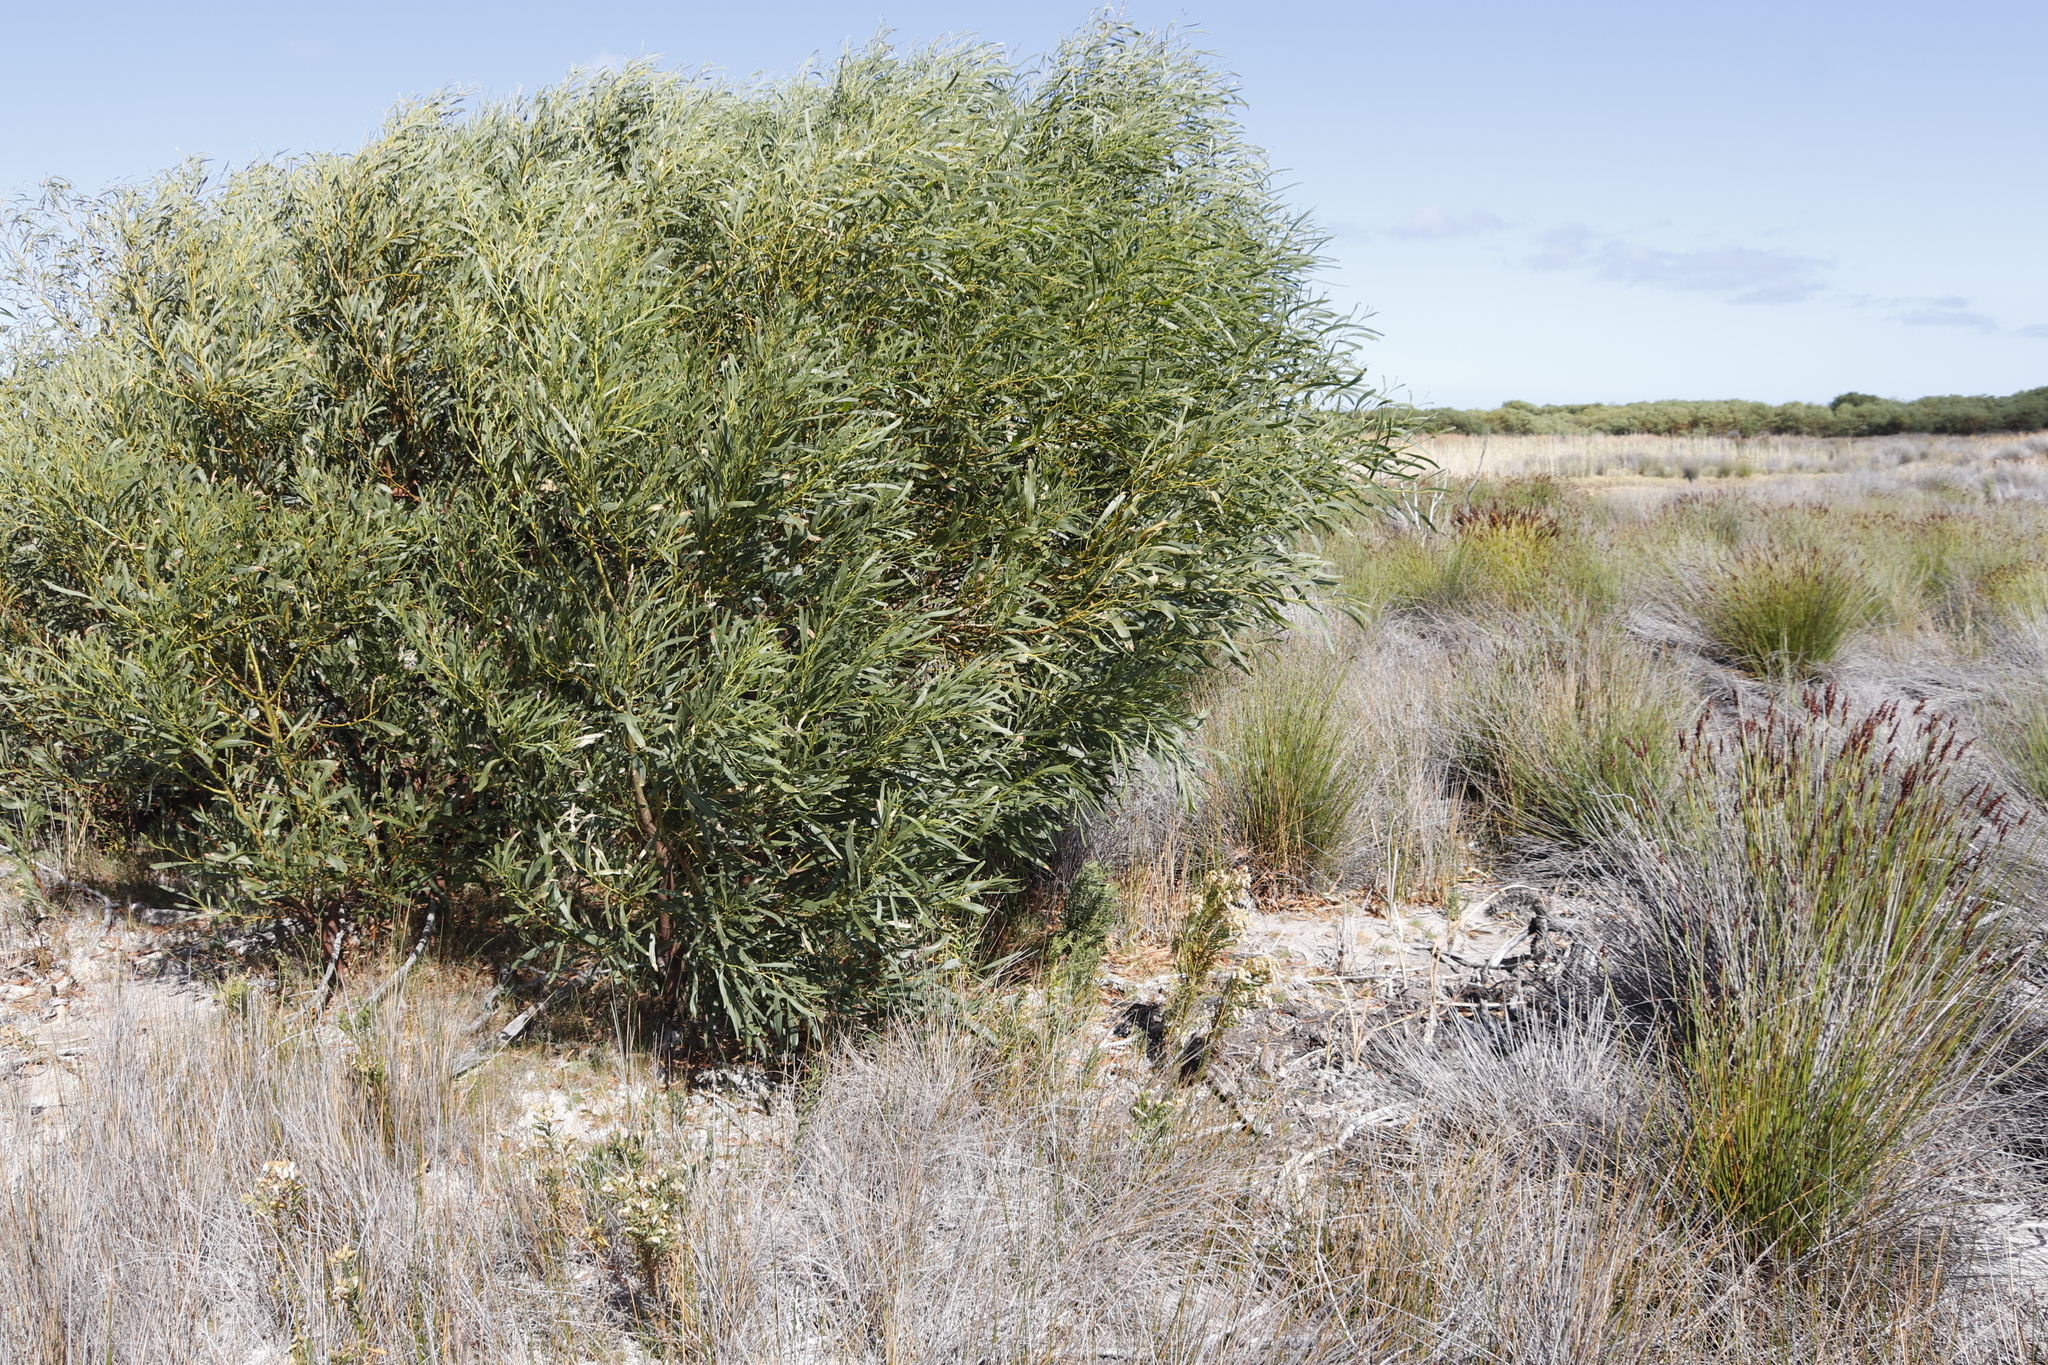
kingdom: Plantae
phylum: Tracheophyta
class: Magnoliopsida
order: Fabales
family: Fabaceae
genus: Acacia
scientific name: Acacia saligna
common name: Orange wattle
